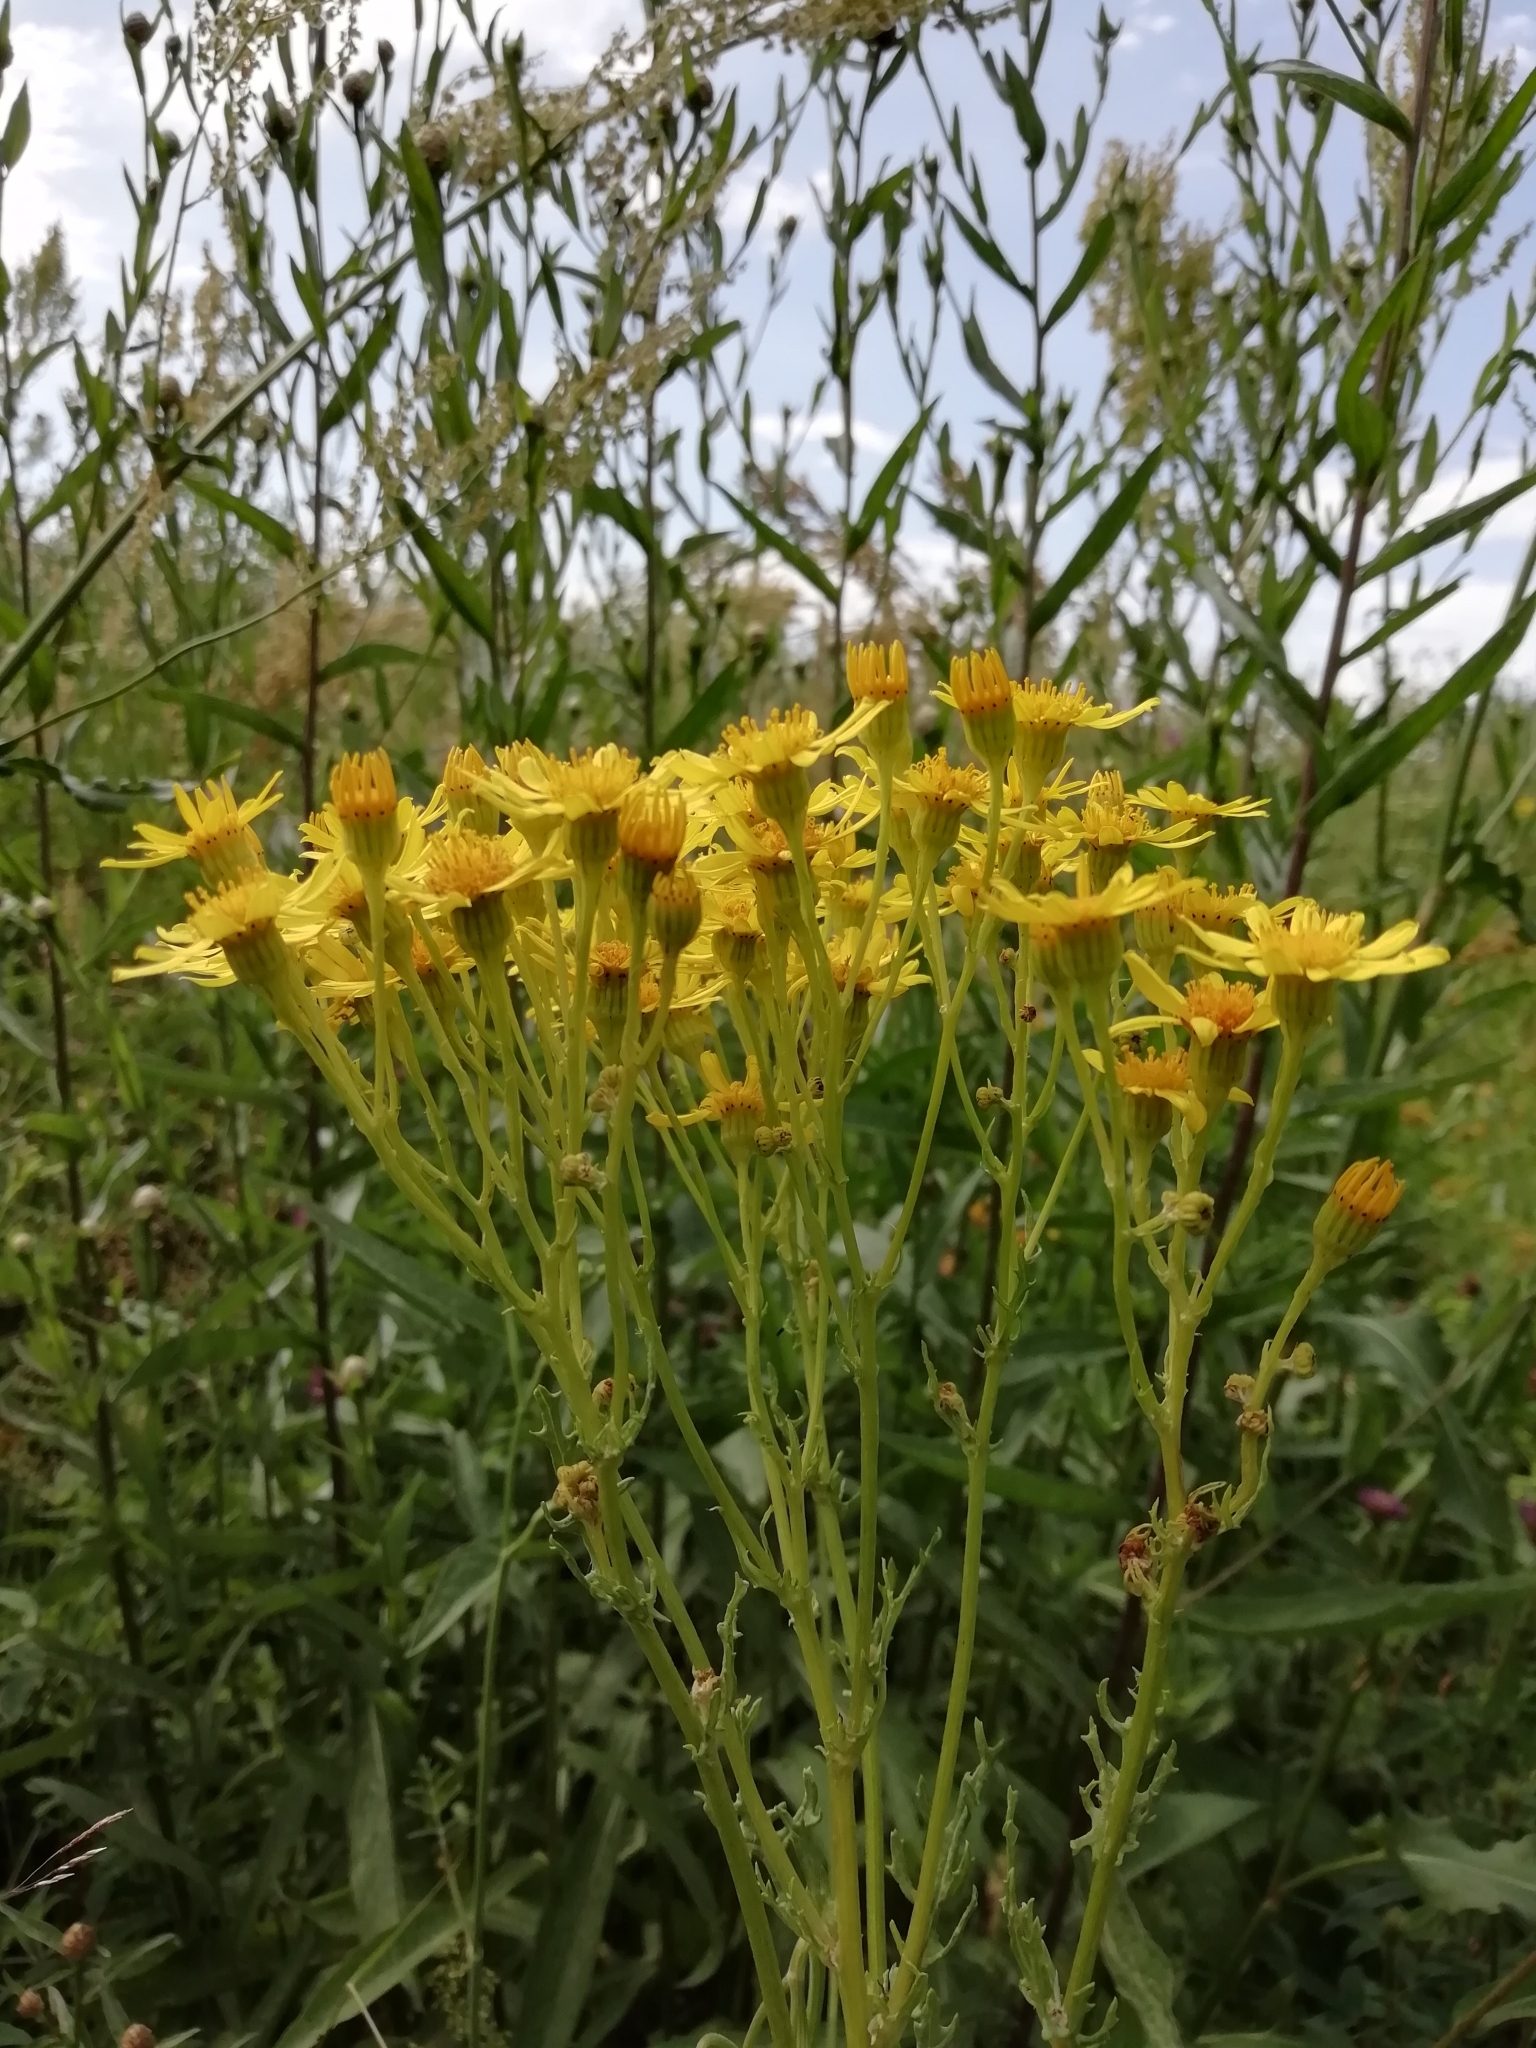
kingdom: Plantae
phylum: Tracheophyta
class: Magnoliopsida
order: Asterales
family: Asteraceae
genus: Jacobaea
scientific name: Jacobaea vulgaris
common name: Stinking willie
